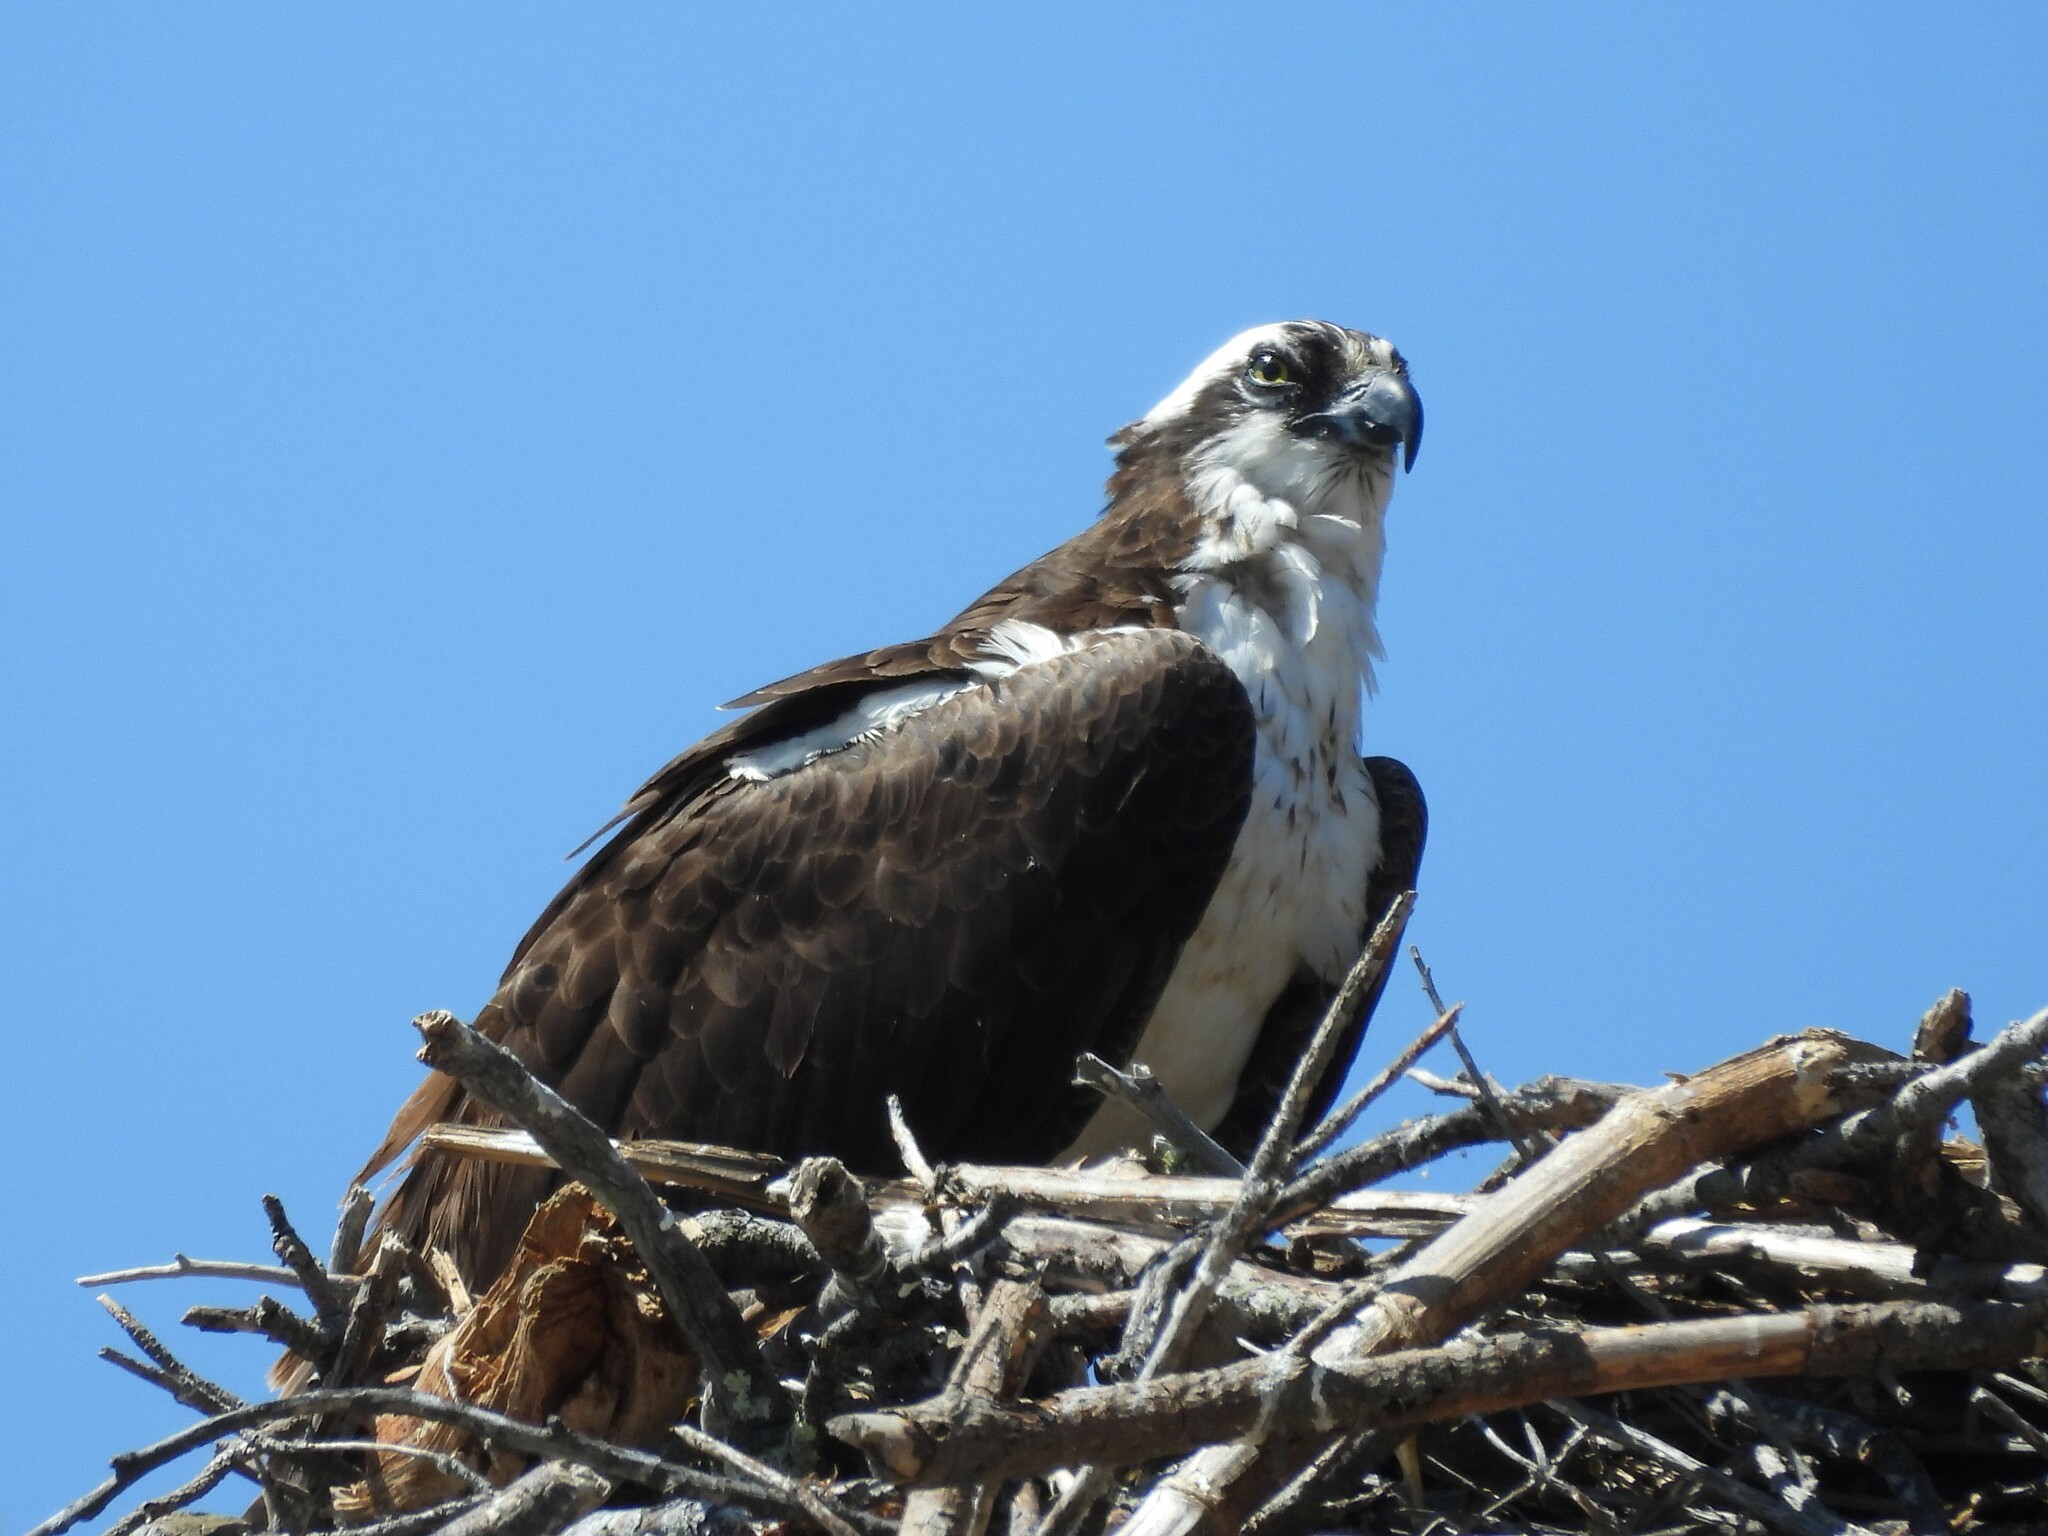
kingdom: Animalia
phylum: Chordata
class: Aves
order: Accipitriformes
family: Pandionidae
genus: Pandion
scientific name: Pandion haliaetus
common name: Osprey
